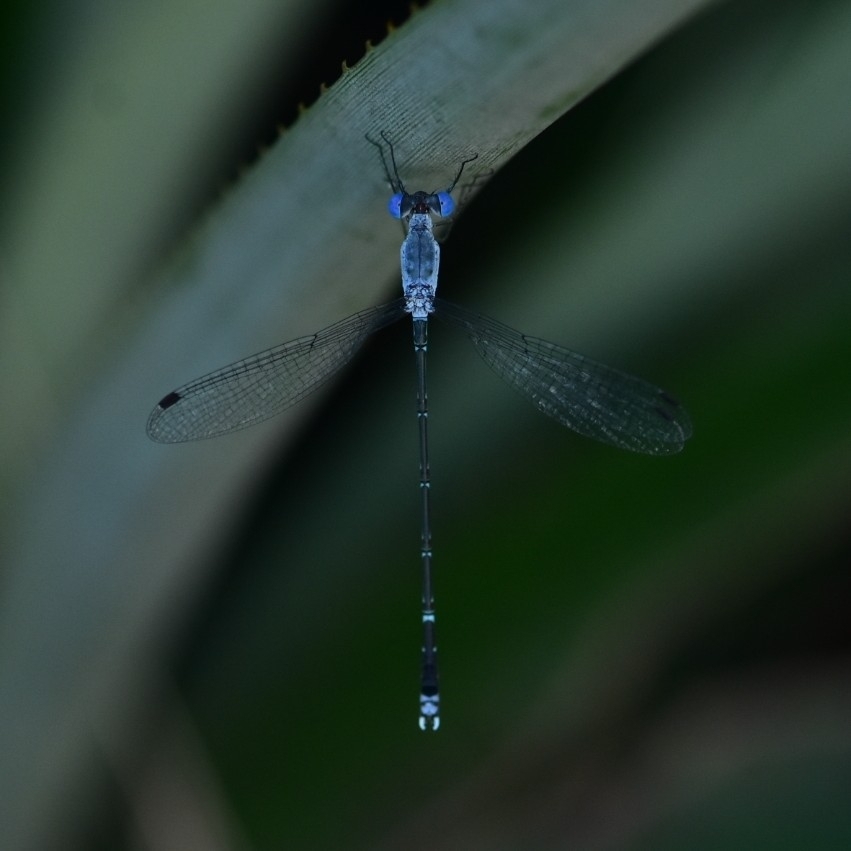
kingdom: Animalia
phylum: Arthropoda
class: Insecta
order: Odonata
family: Lestidae
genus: Lestes
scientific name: Lestes praemorsus
